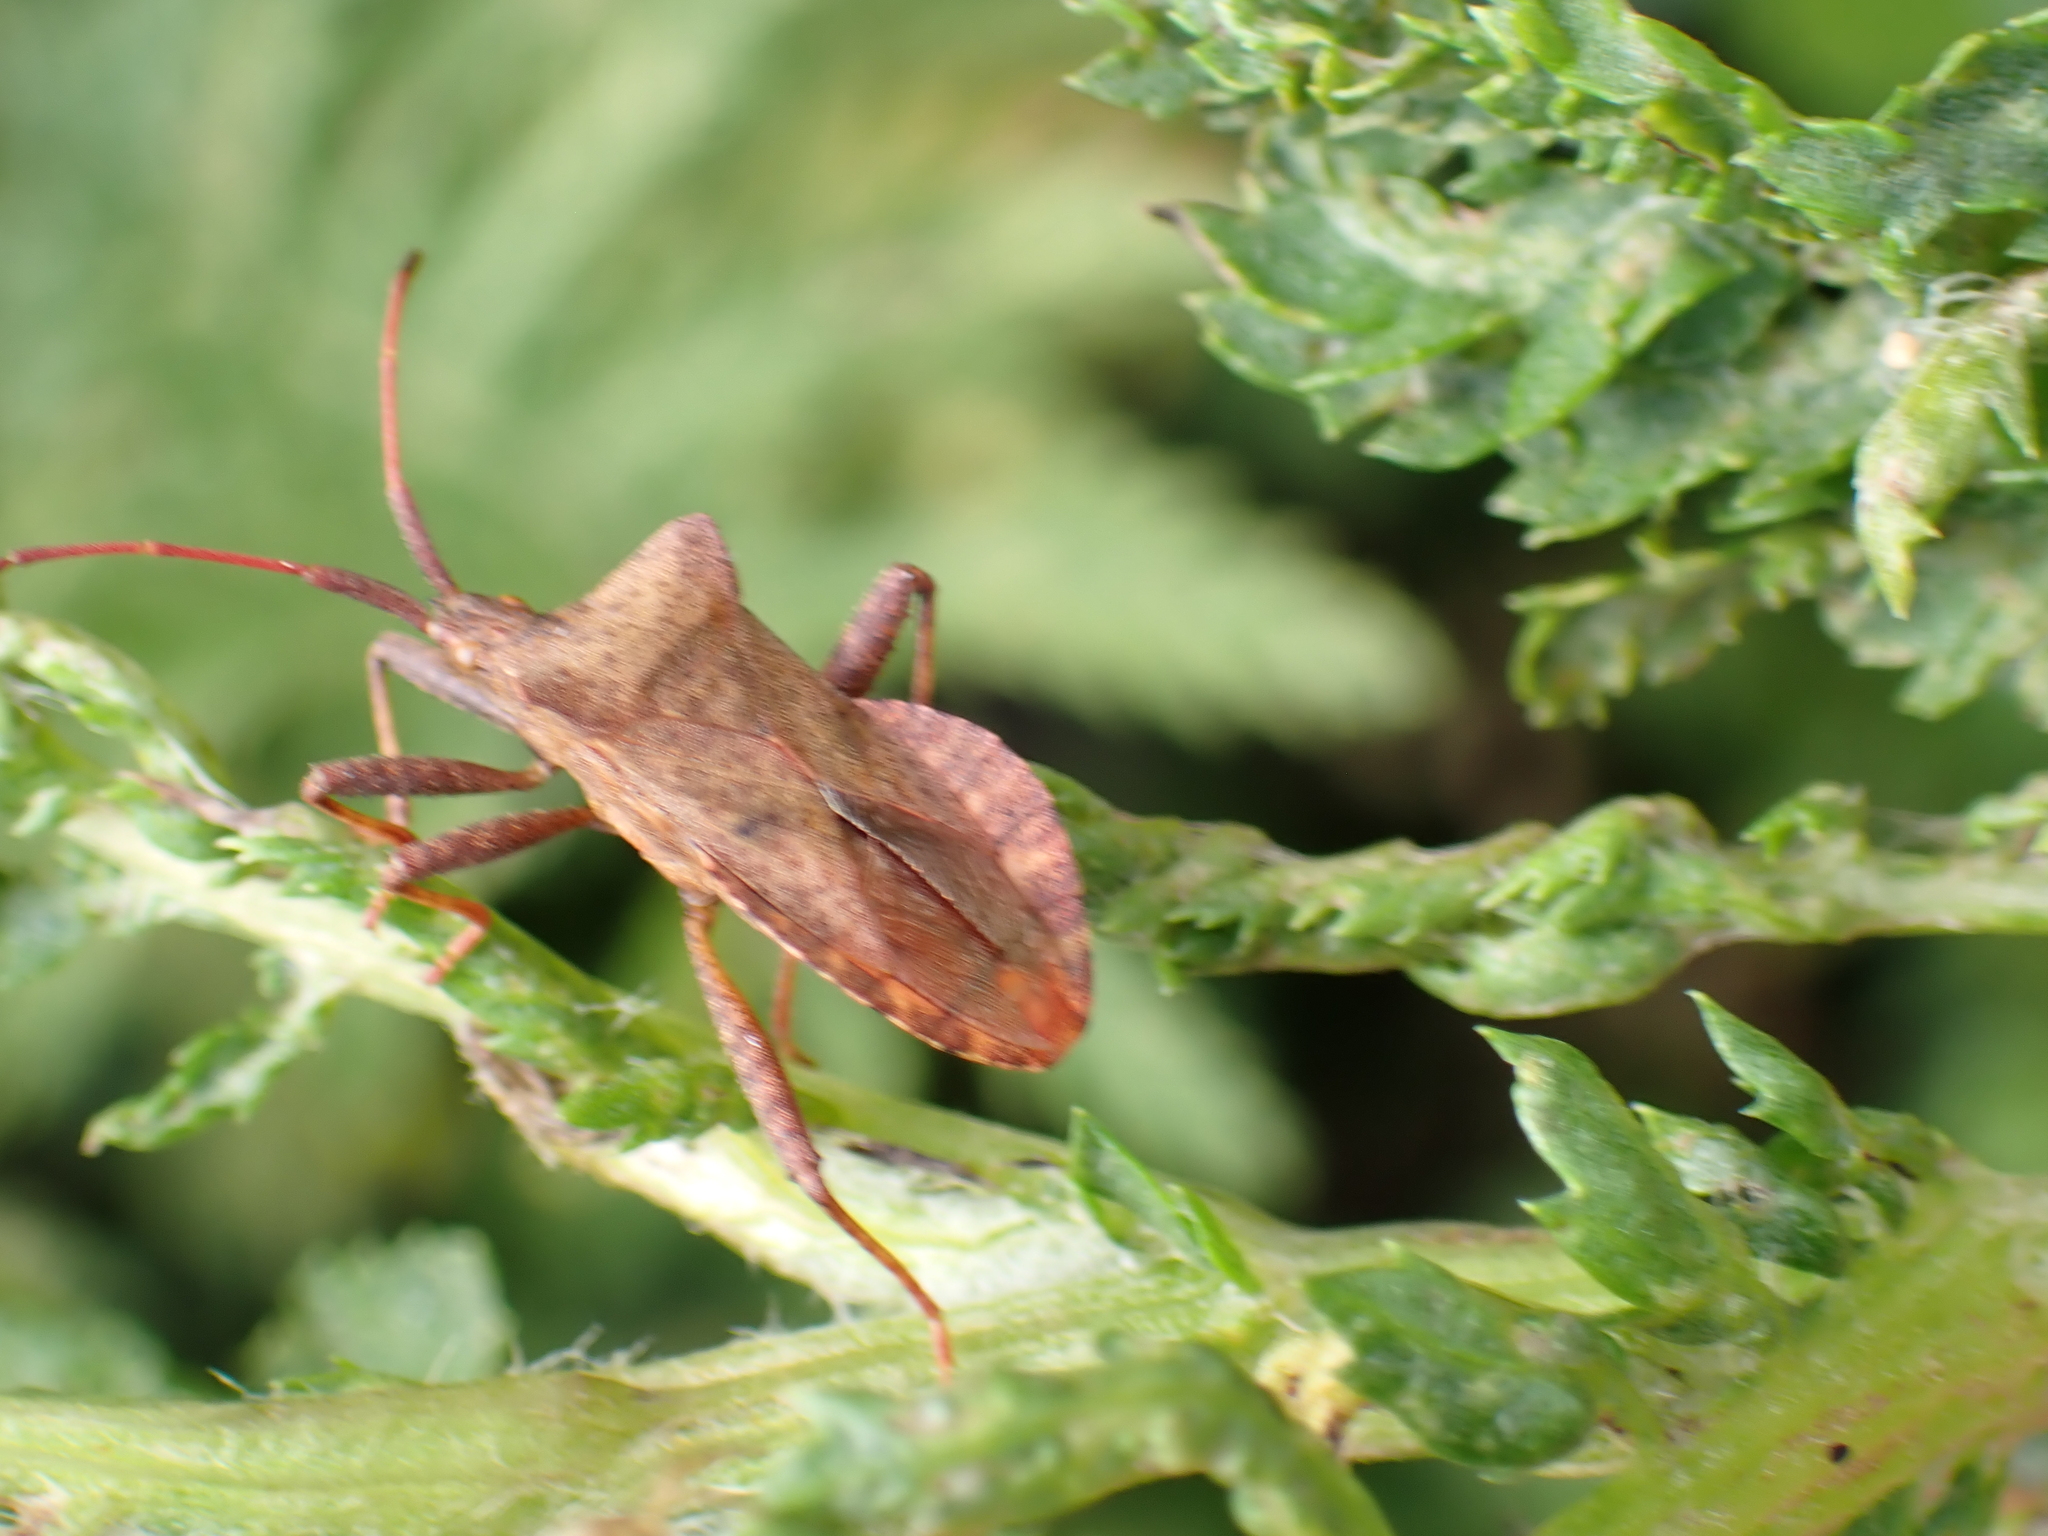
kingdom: Animalia
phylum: Arthropoda
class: Insecta
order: Hemiptera
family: Coreidae
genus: Coreus
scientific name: Coreus marginatus
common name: Dock bug
